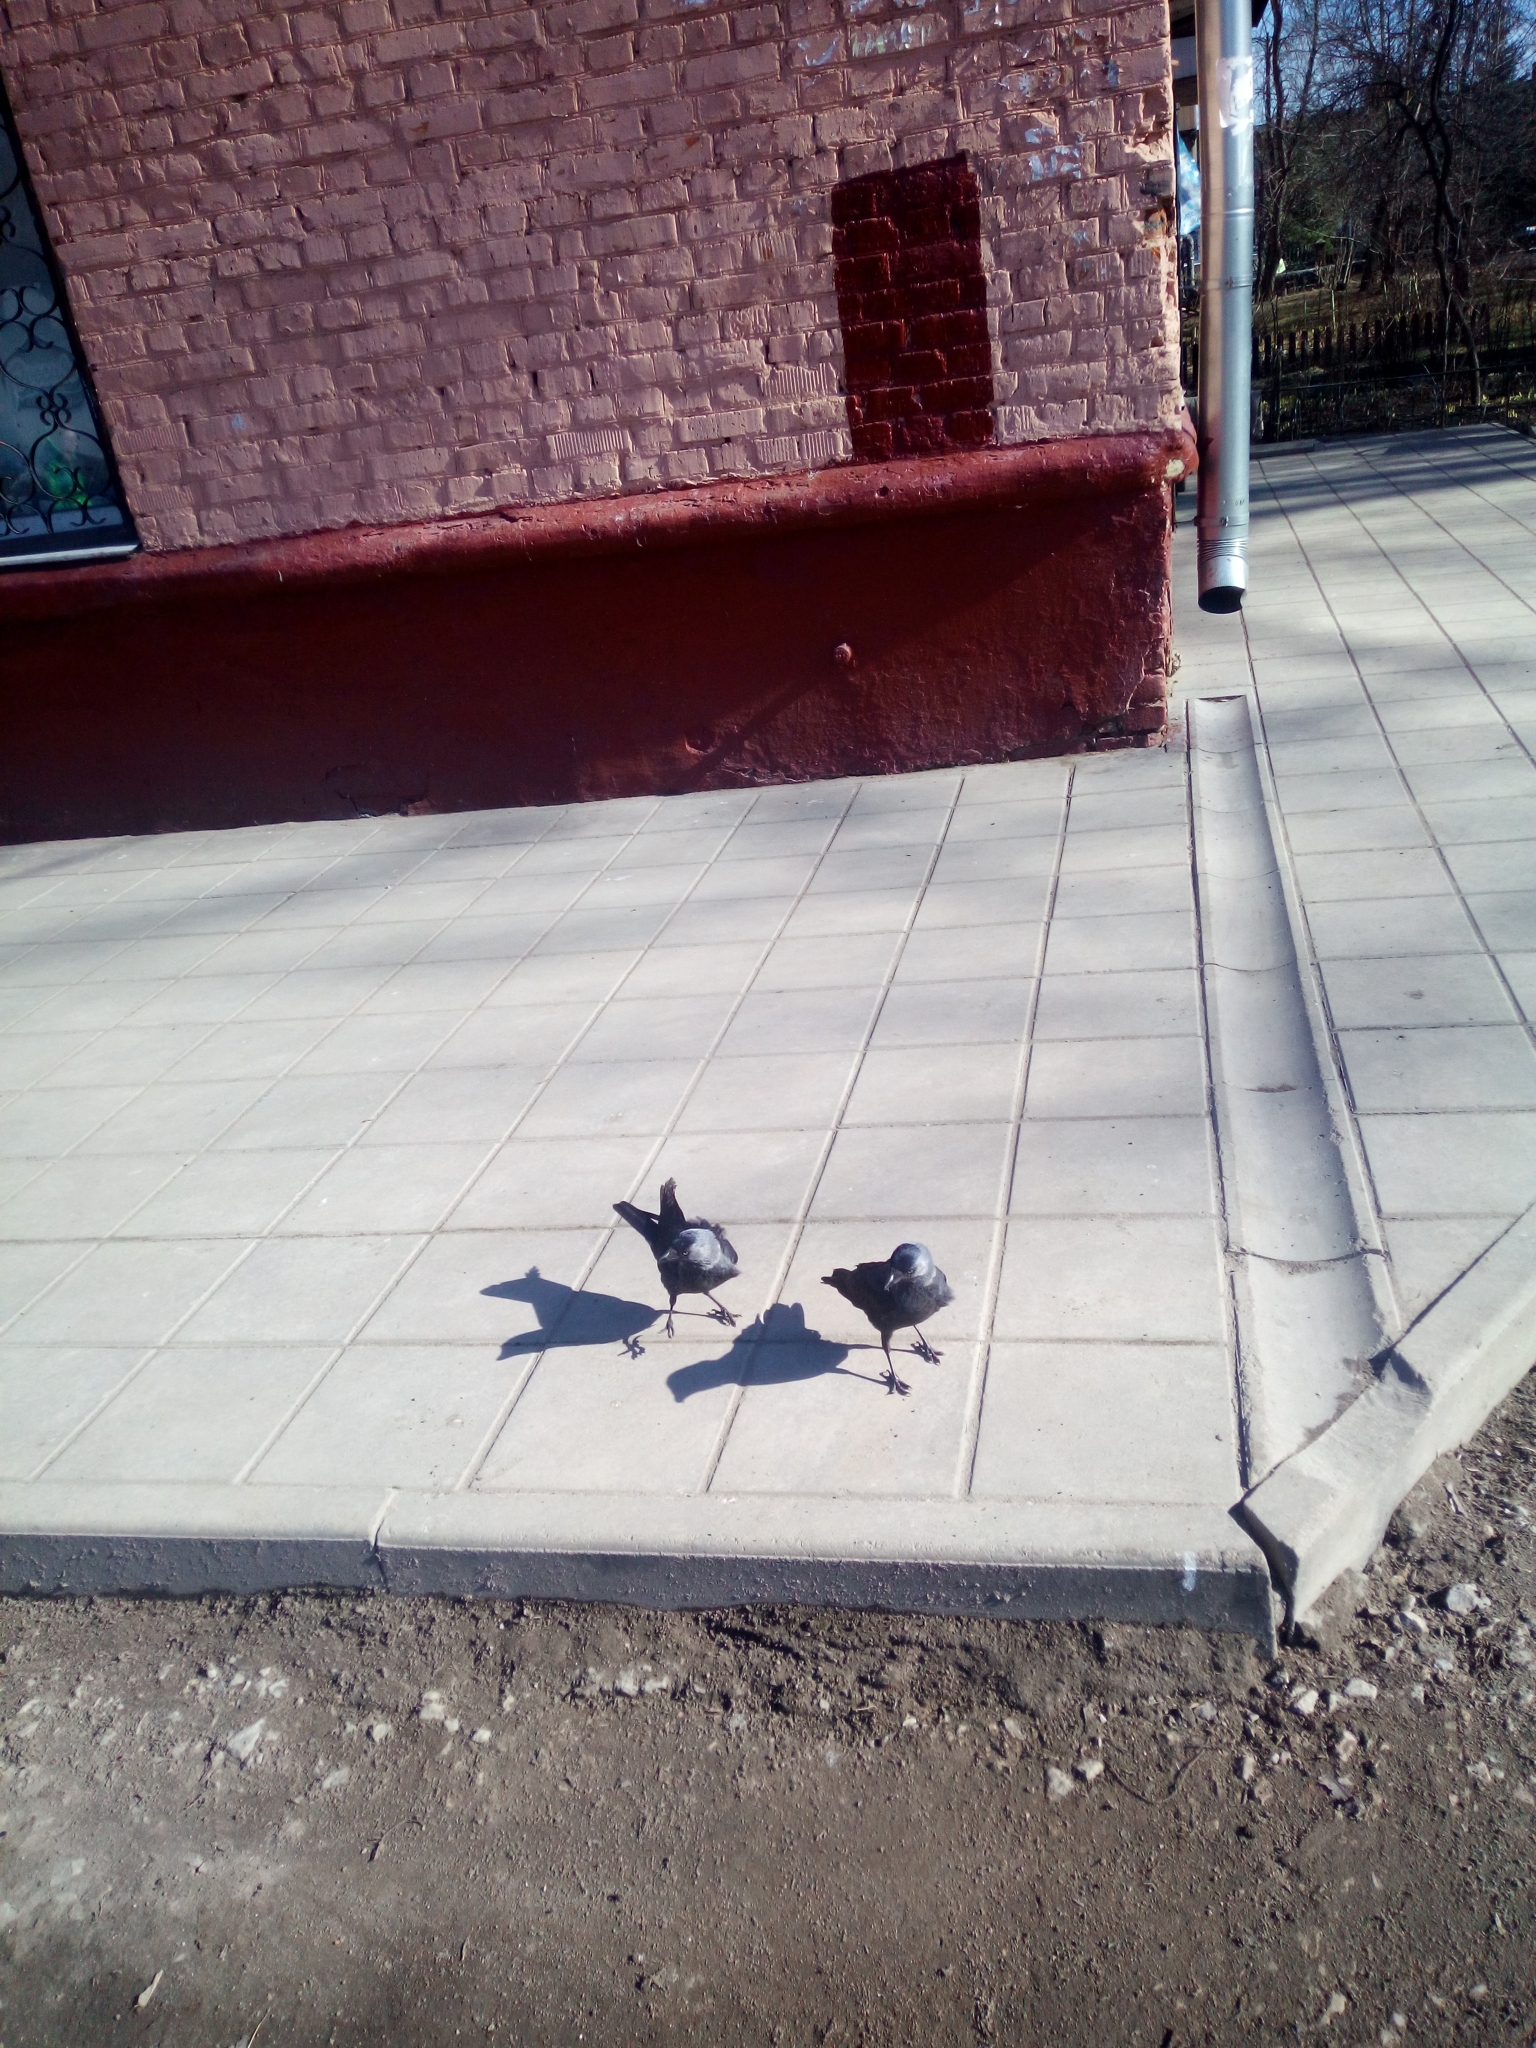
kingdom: Animalia
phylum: Chordata
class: Aves
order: Passeriformes
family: Corvidae
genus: Coloeus
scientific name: Coloeus monedula
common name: Western jackdaw
